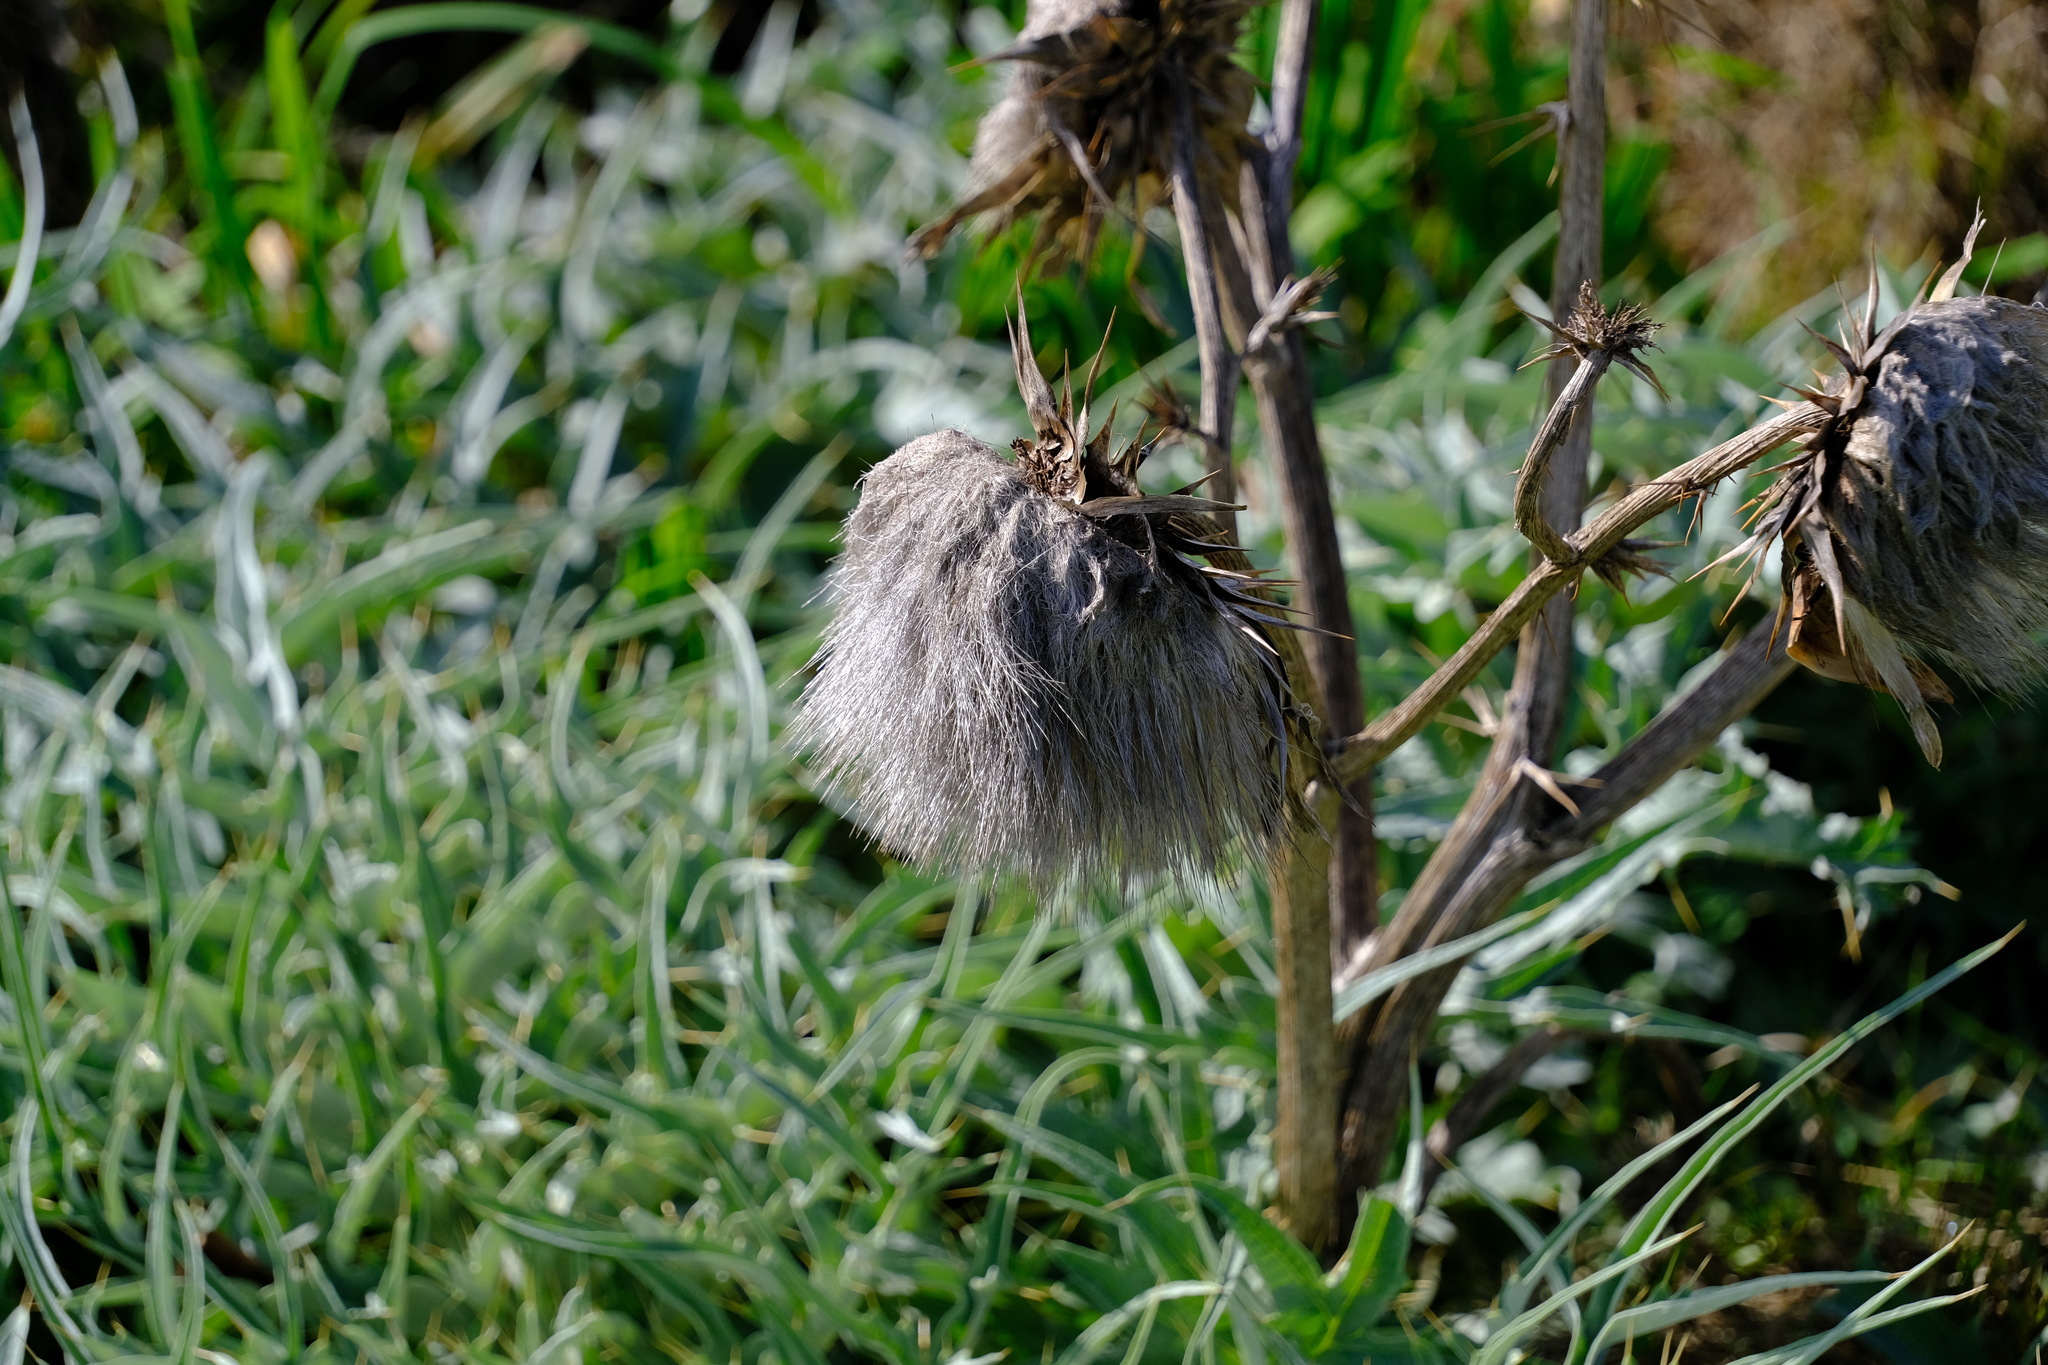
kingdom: Plantae
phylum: Tracheophyta
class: Magnoliopsida
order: Asterales
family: Asteraceae
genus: Cynara
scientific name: Cynara cardunculus
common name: Globe artichoke
